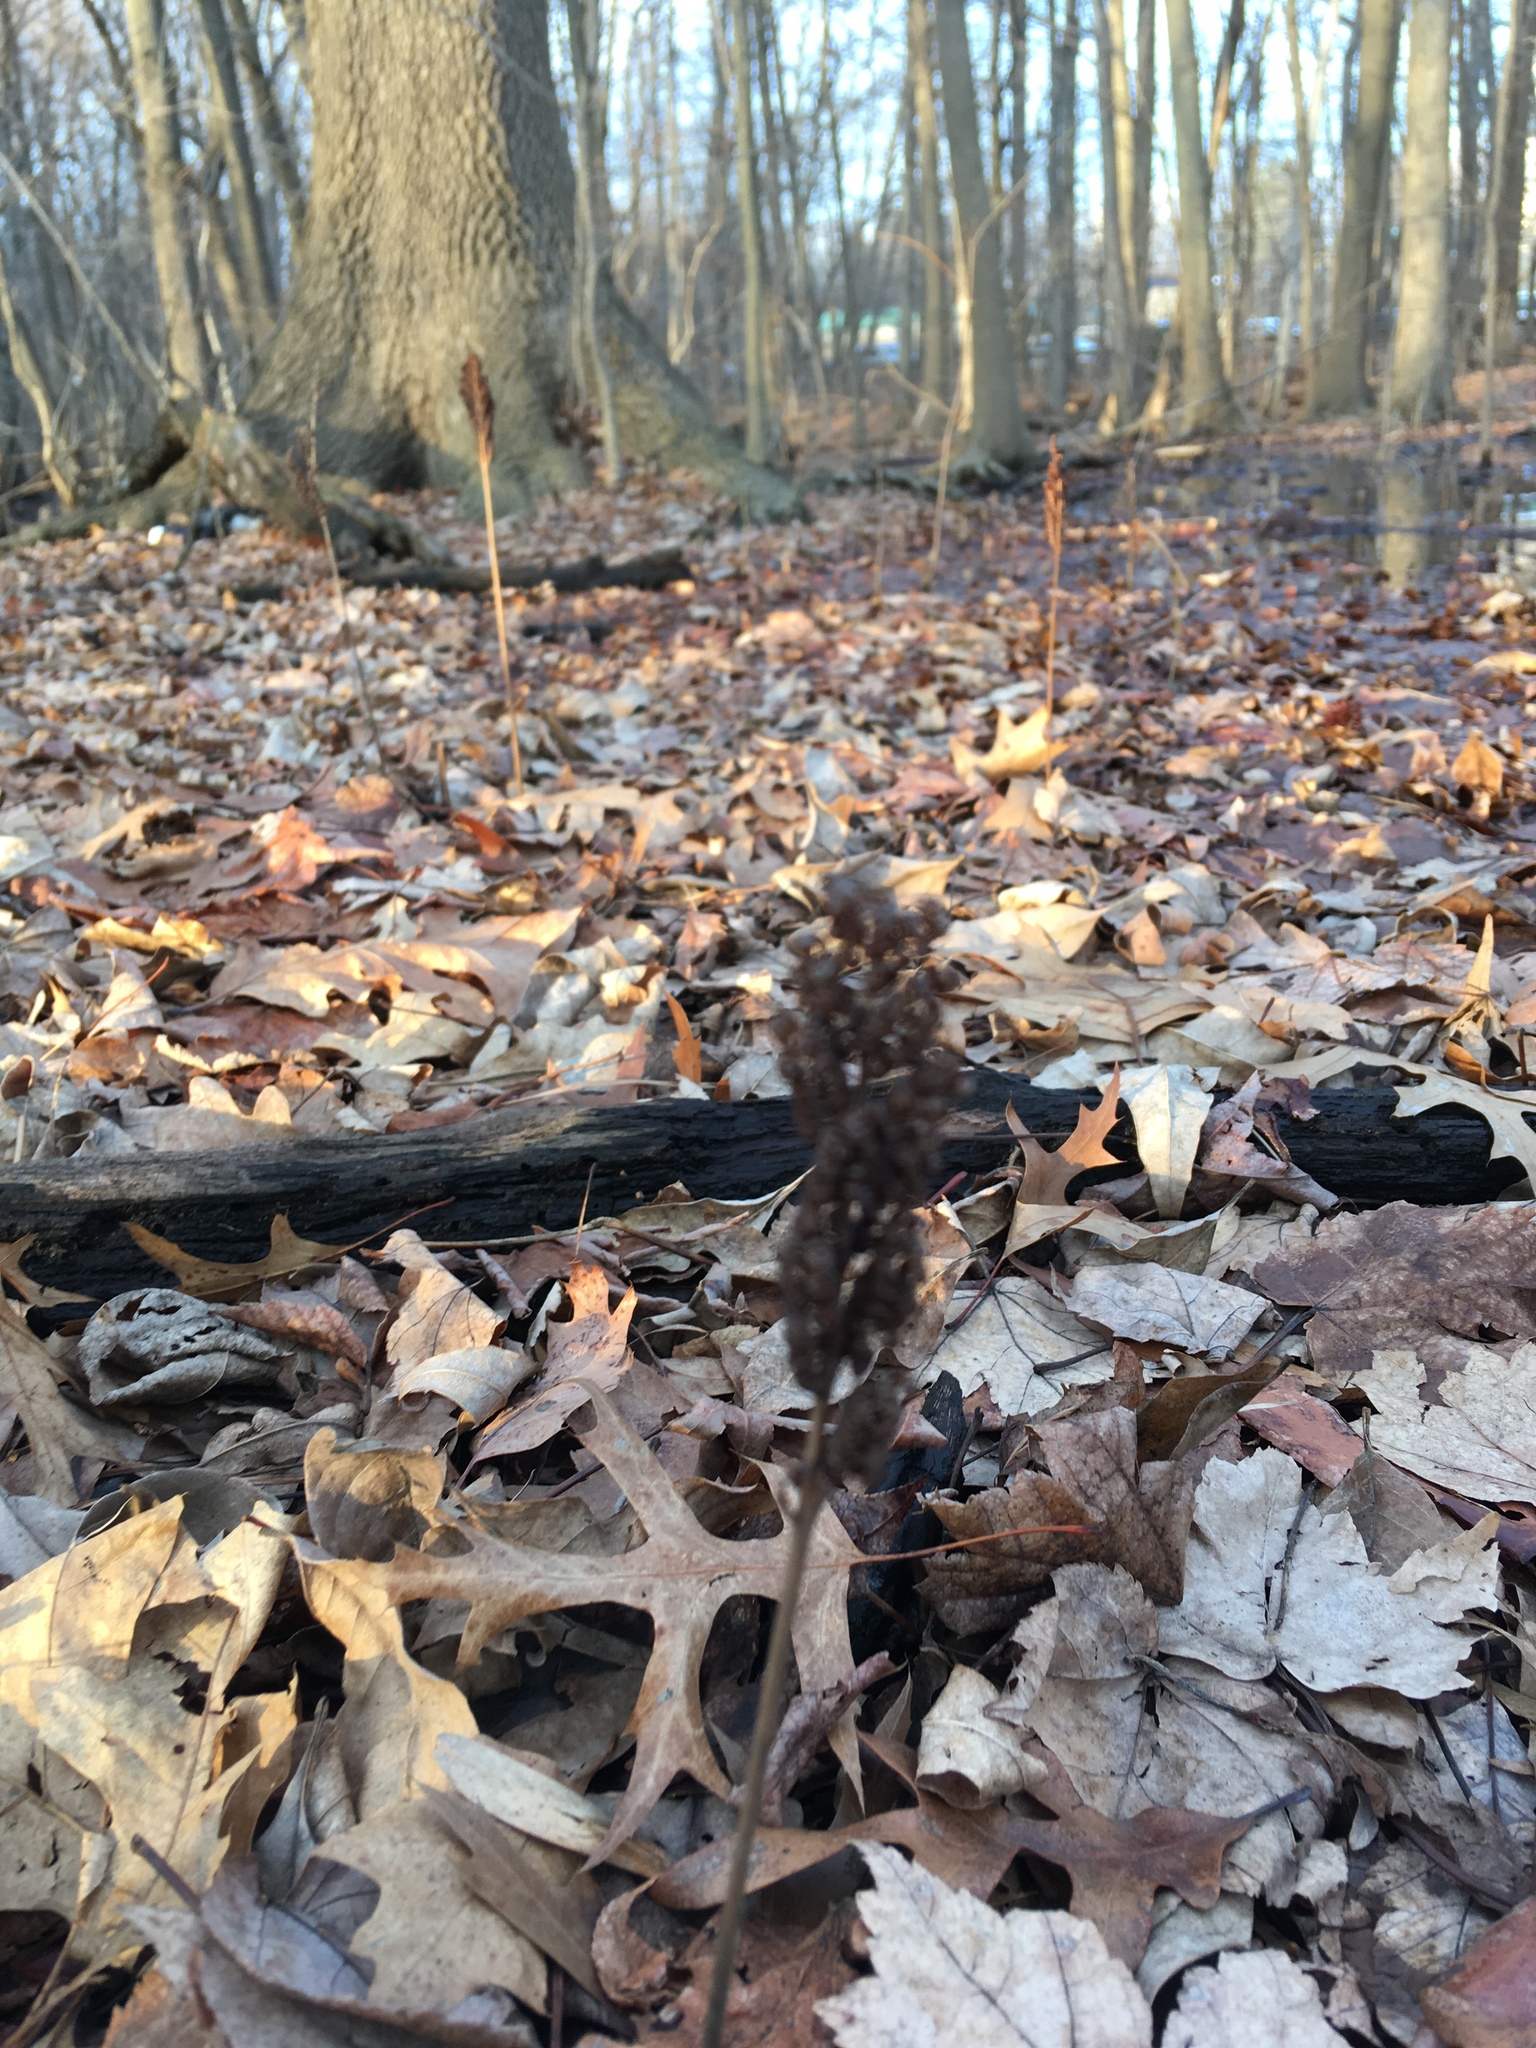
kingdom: Plantae
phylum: Tracheophyta
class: Polypodiopsida
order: Polypodiales
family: Onocleaceae
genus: Onoclea
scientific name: Onoclea sensibilis
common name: Sensitive fern
